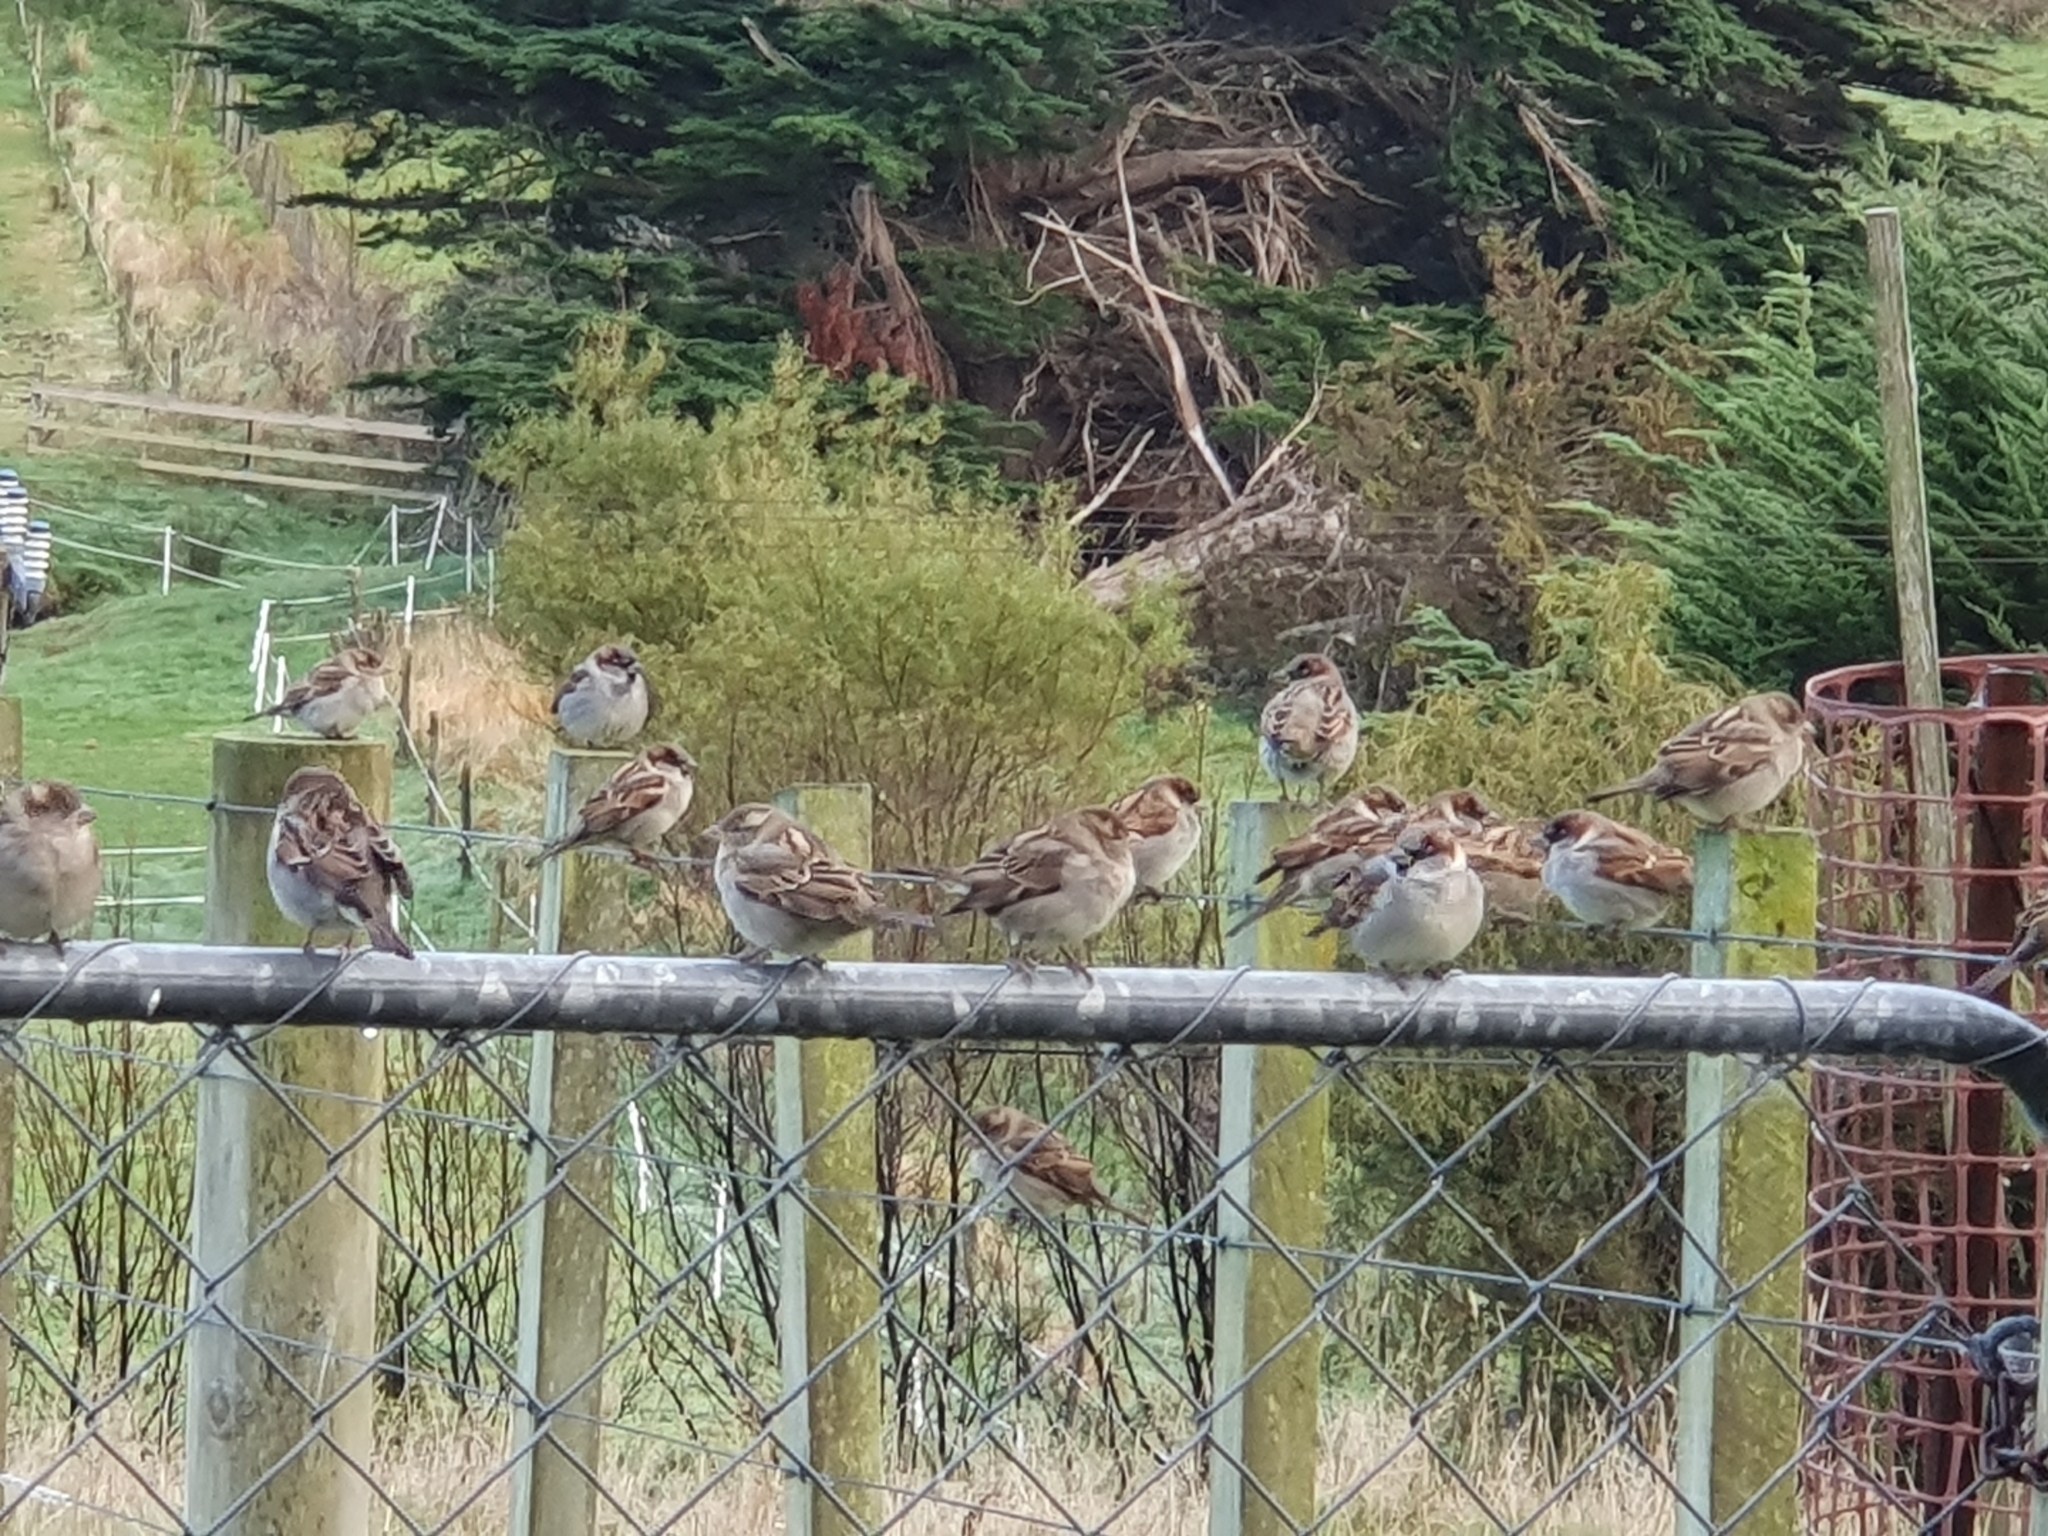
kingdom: Animalia
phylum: Chordata
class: Aves
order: Passeriformes
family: Passeridae
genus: Passer
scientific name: Passer domesticus
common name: House sparrow
